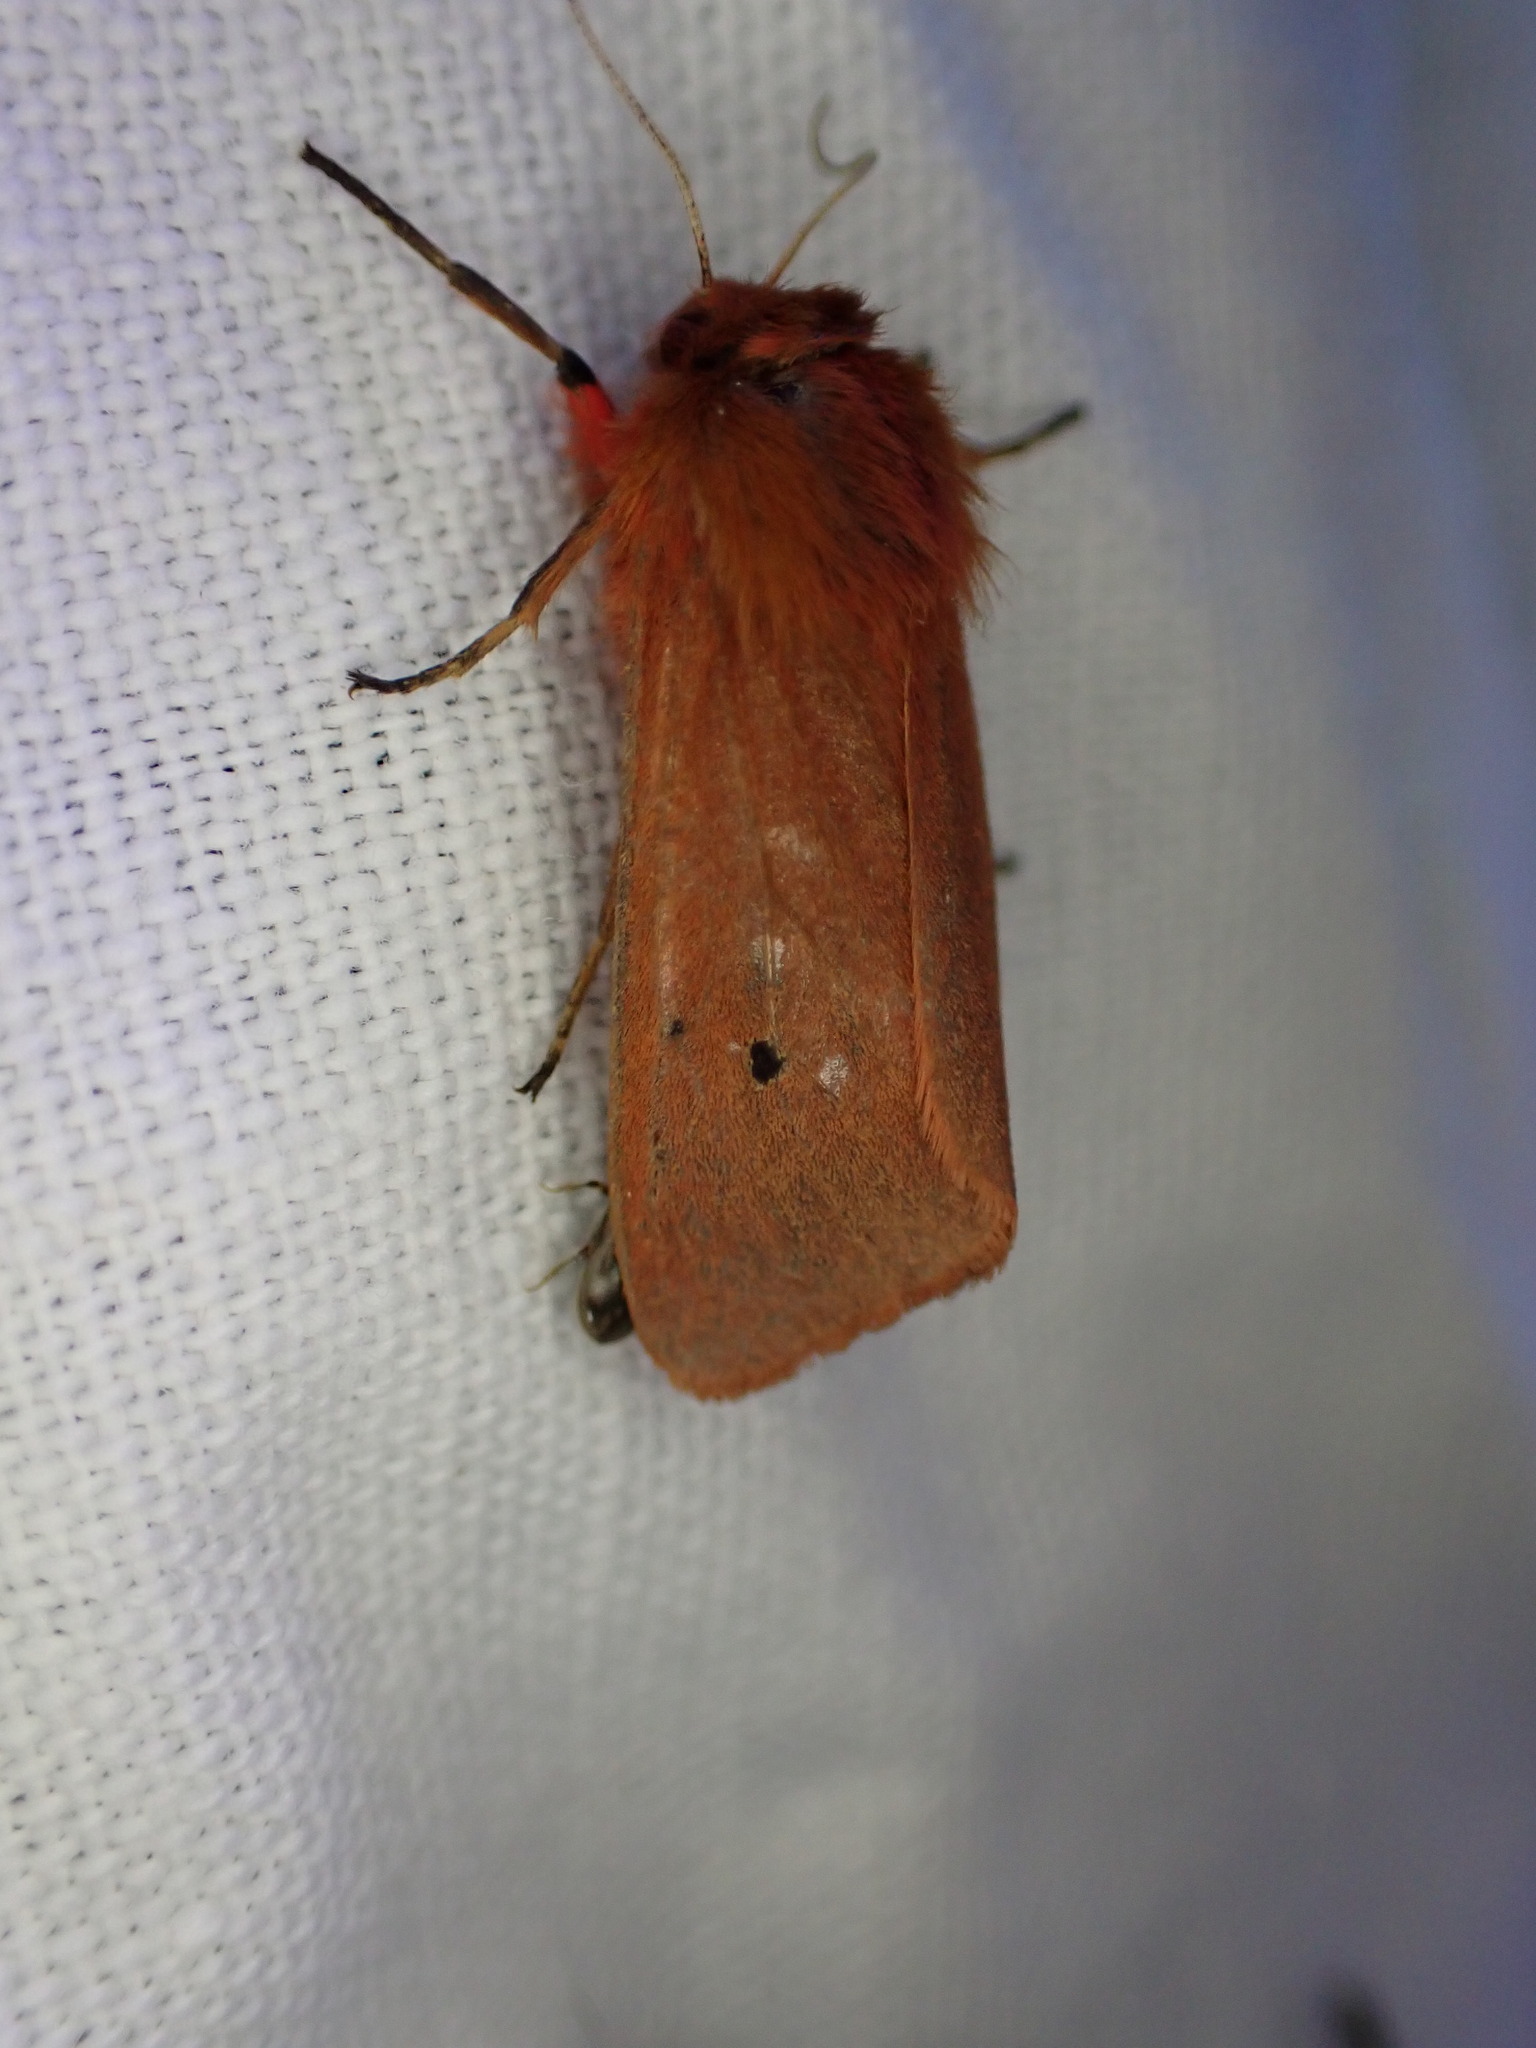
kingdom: Animalia
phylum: Arthropoda
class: Insecta
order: Lepidoptera
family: Erebidae
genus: Phragmatobia
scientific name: Phragmatobia fuliginosa
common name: Ruby tiger
